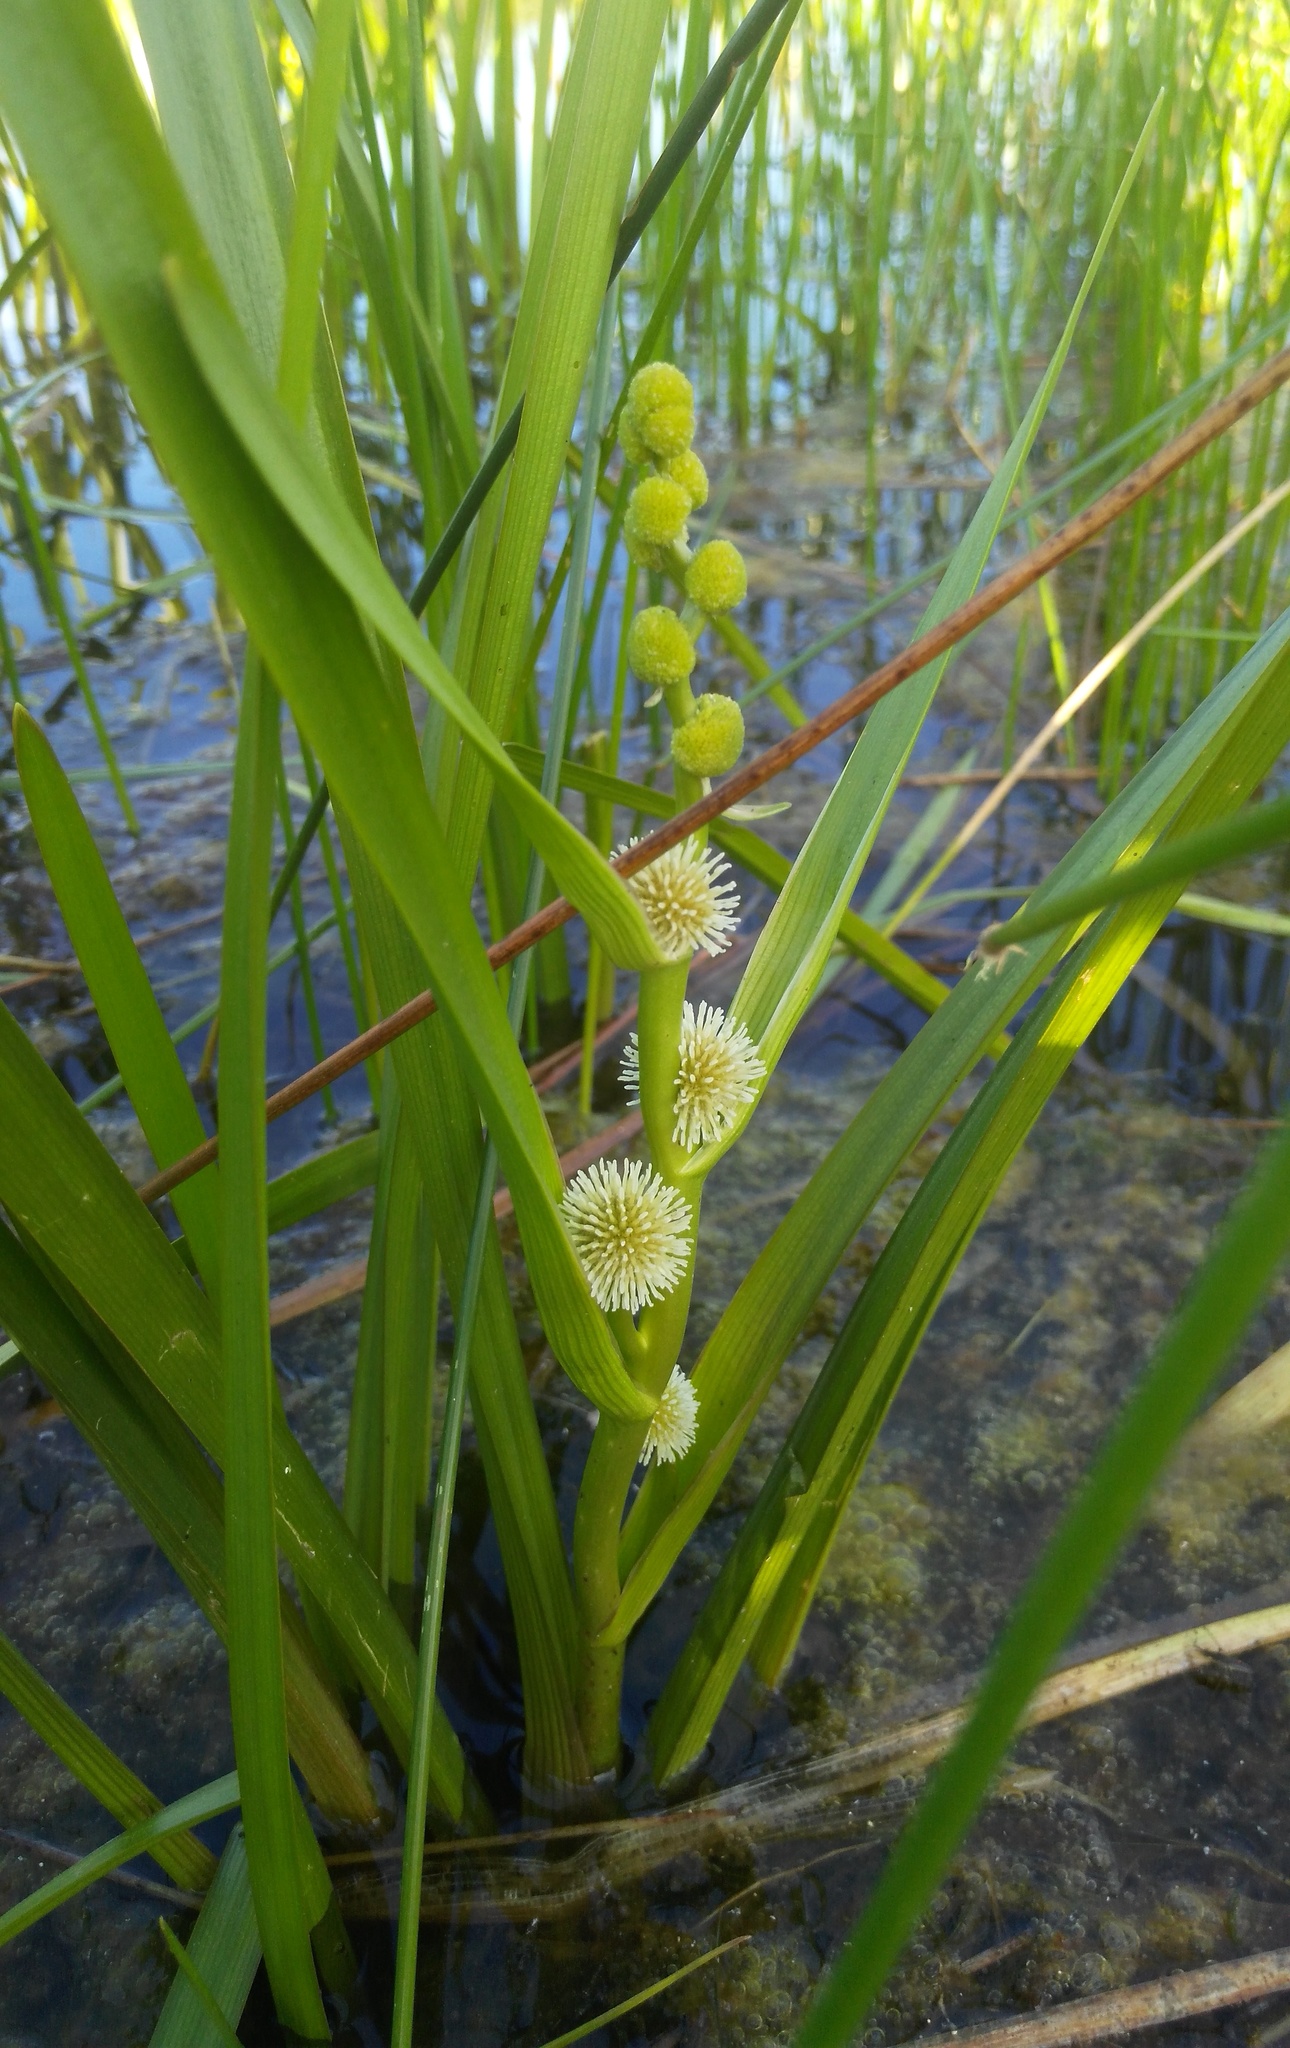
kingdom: Plantae
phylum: Tracheophyta
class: Liliopsida
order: Poales
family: Typhaceae
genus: Sparganium
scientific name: Sparganium emersum
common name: Unbranched bur-reed
